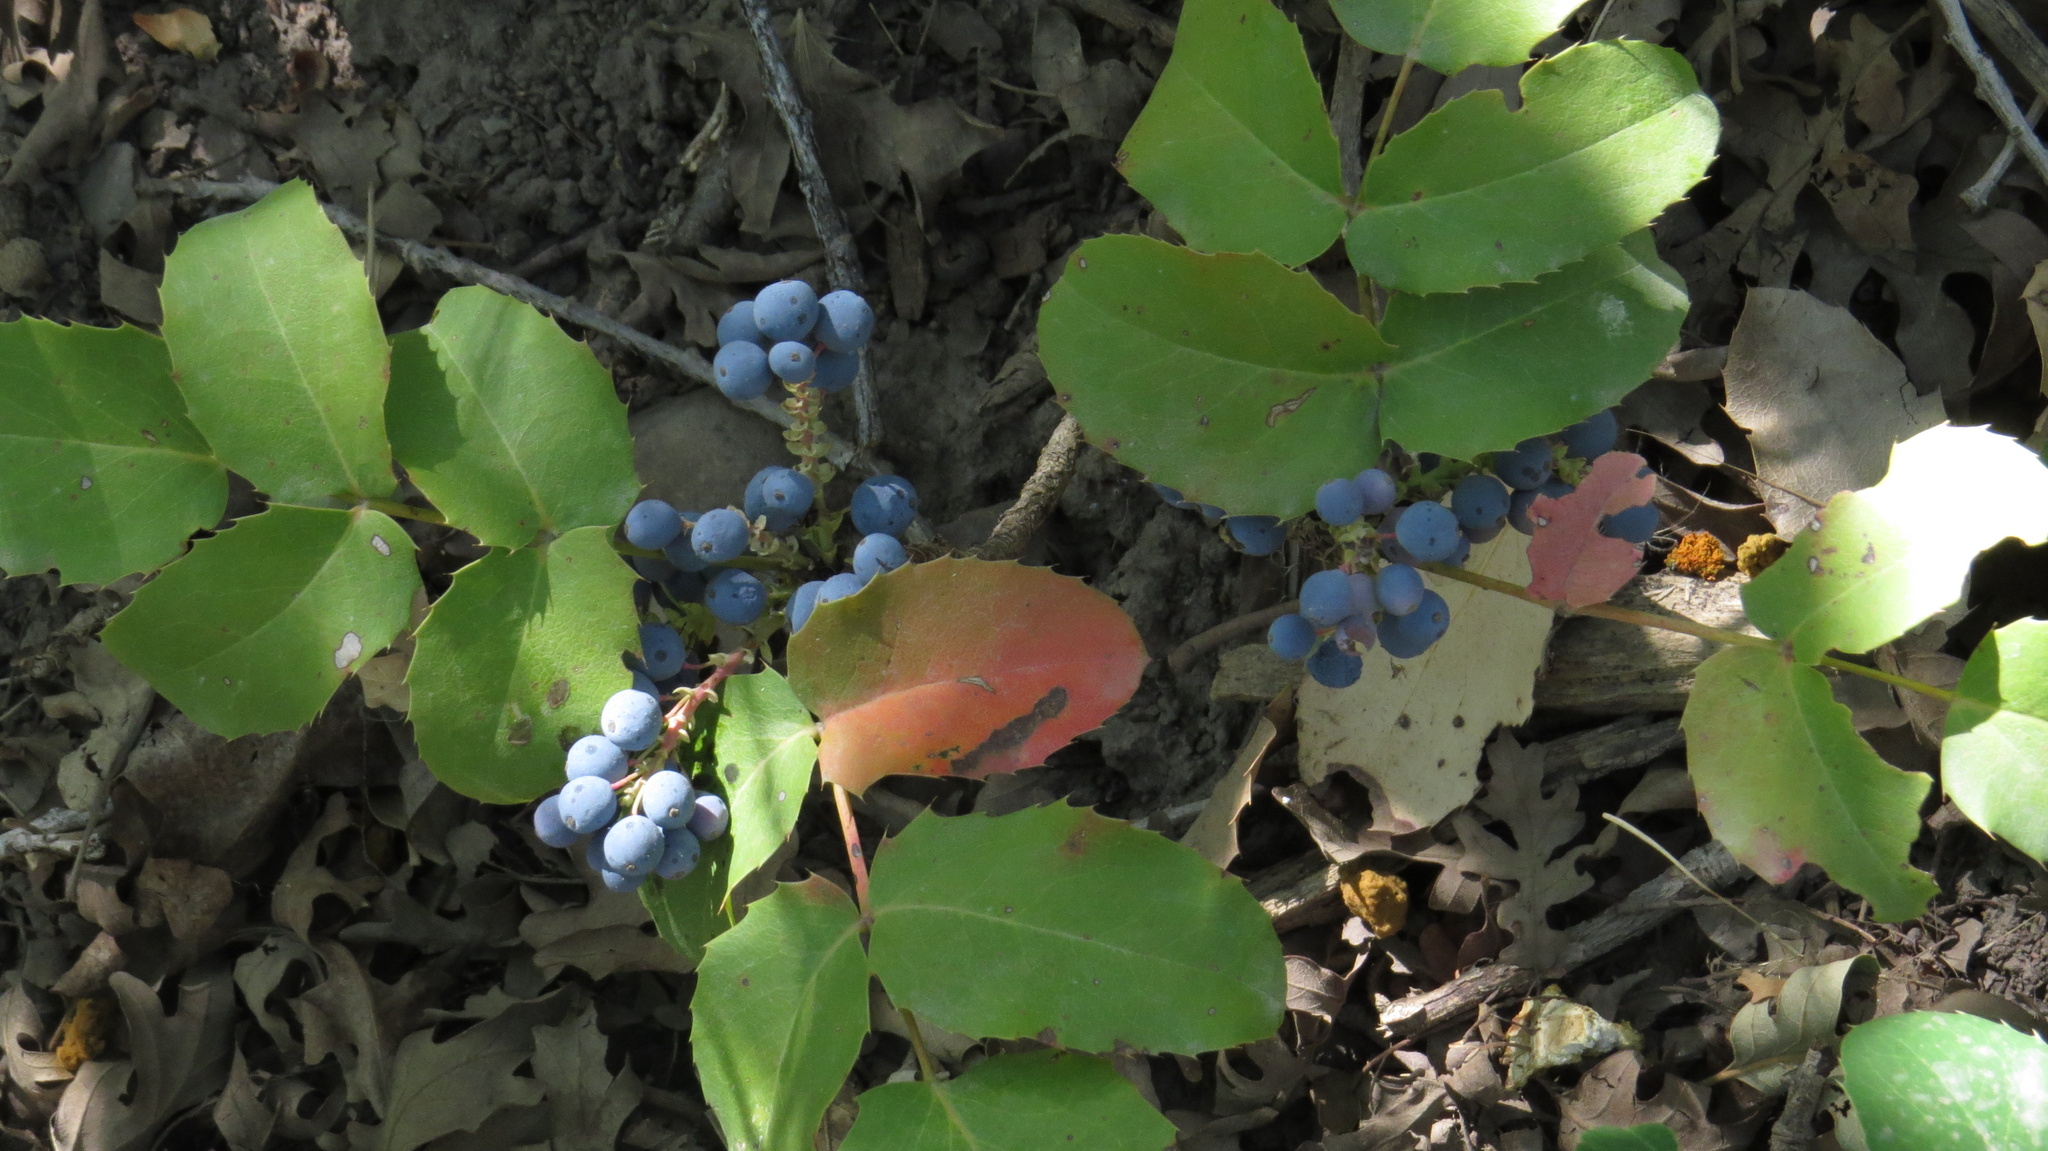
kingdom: Plantae
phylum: Tracheophyta
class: Magnoliopsida
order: Ranunculales
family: Berberidaceae
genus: Mahonia
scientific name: Mahonia repens
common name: Creeping oregon-grape
